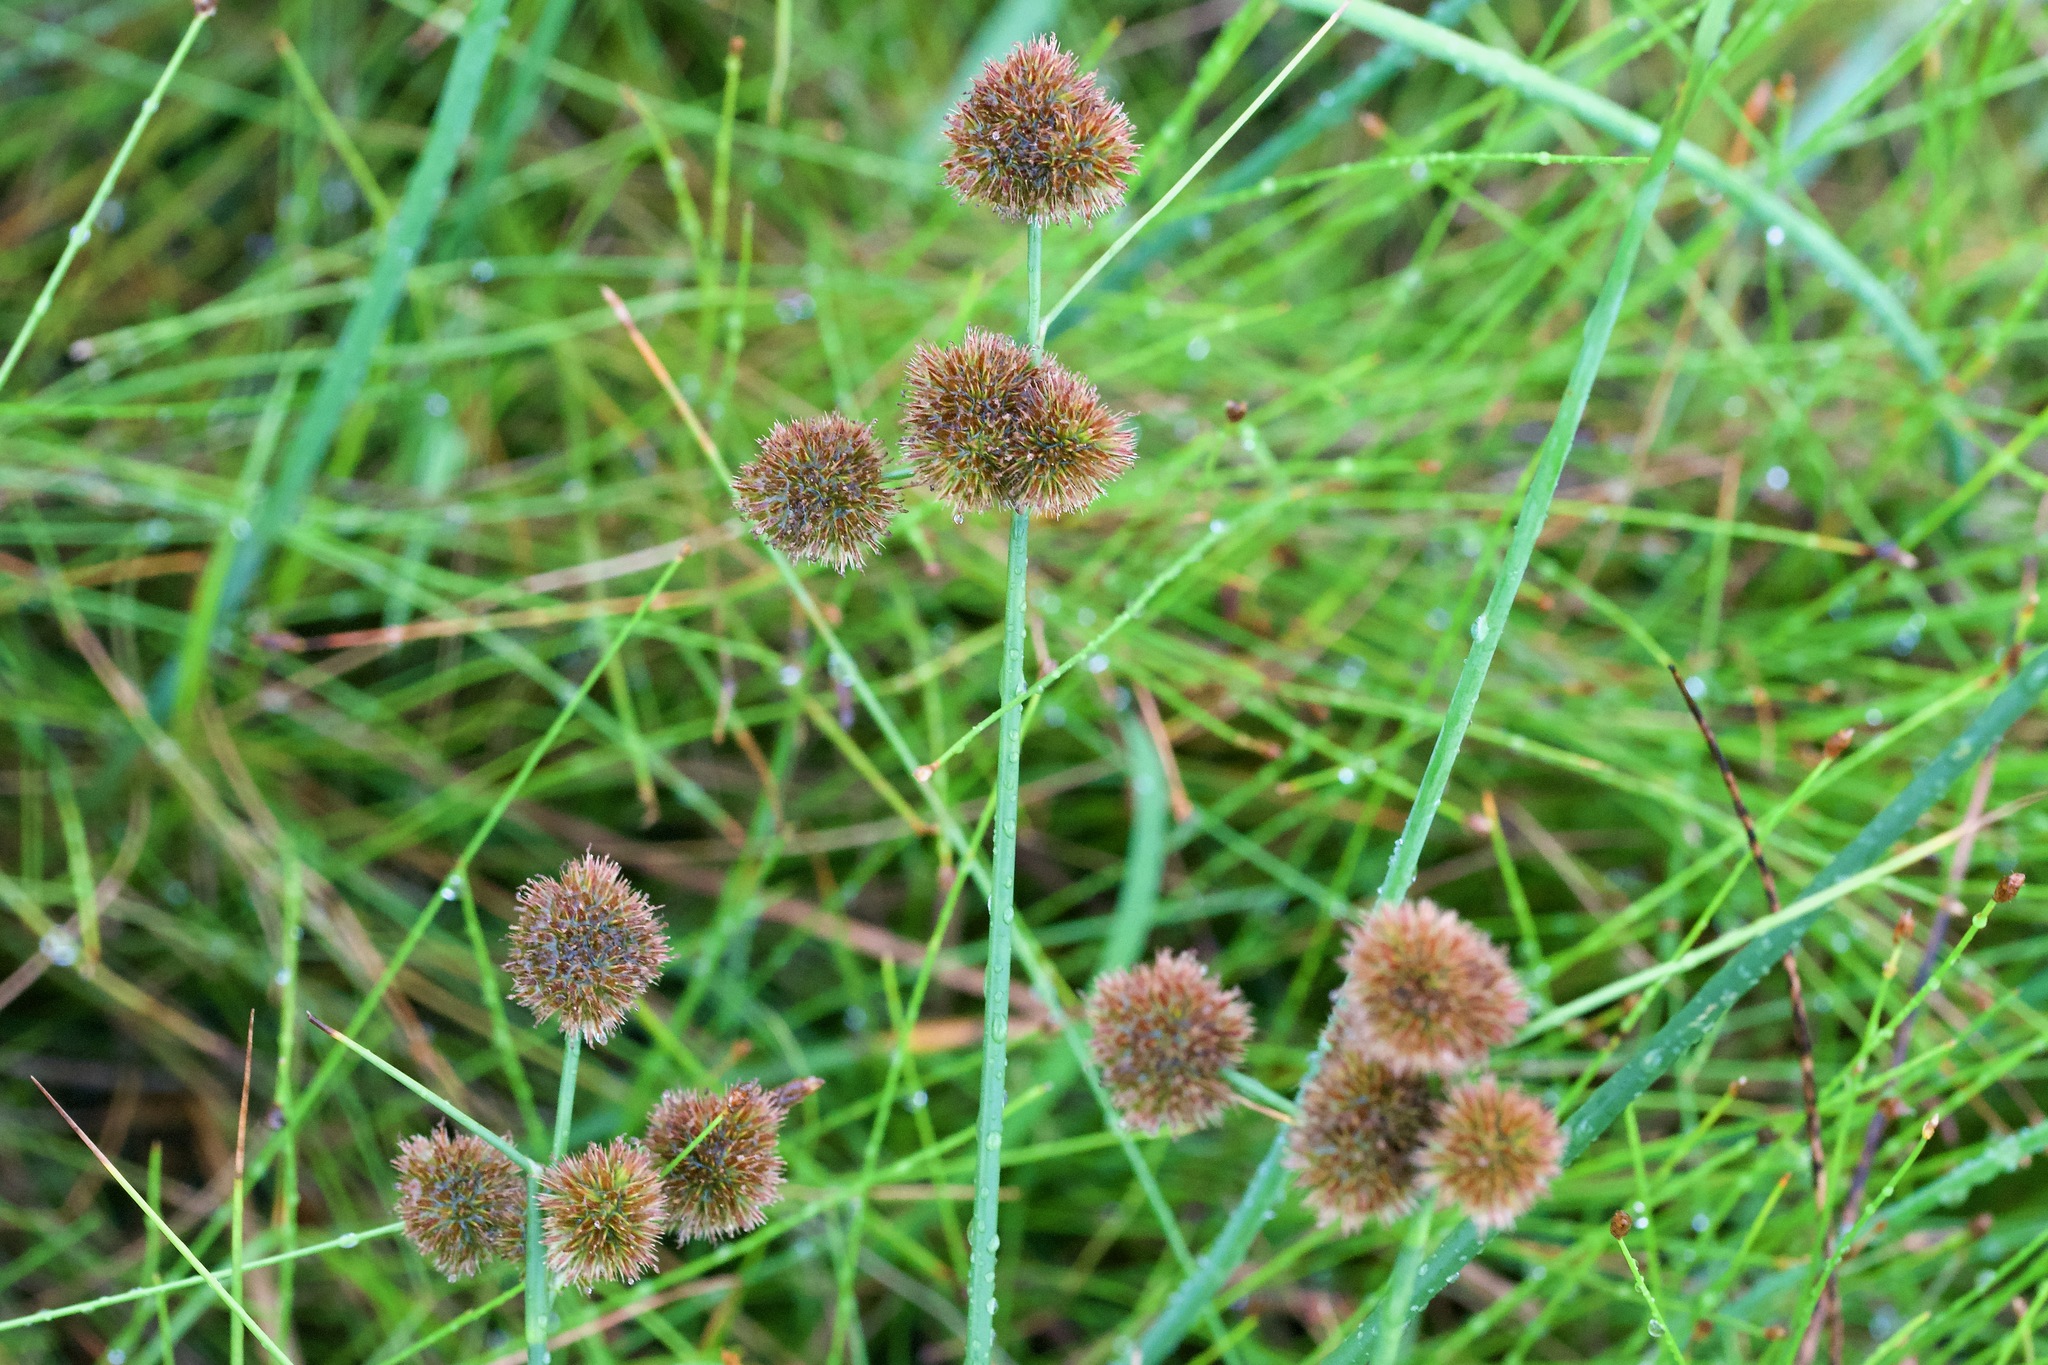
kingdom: Plantae
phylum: Tracheophyta
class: Liliopsida
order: Poales
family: Juncaceae
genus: Juncus
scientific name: Juncus torreyi
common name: Torrey's rush
